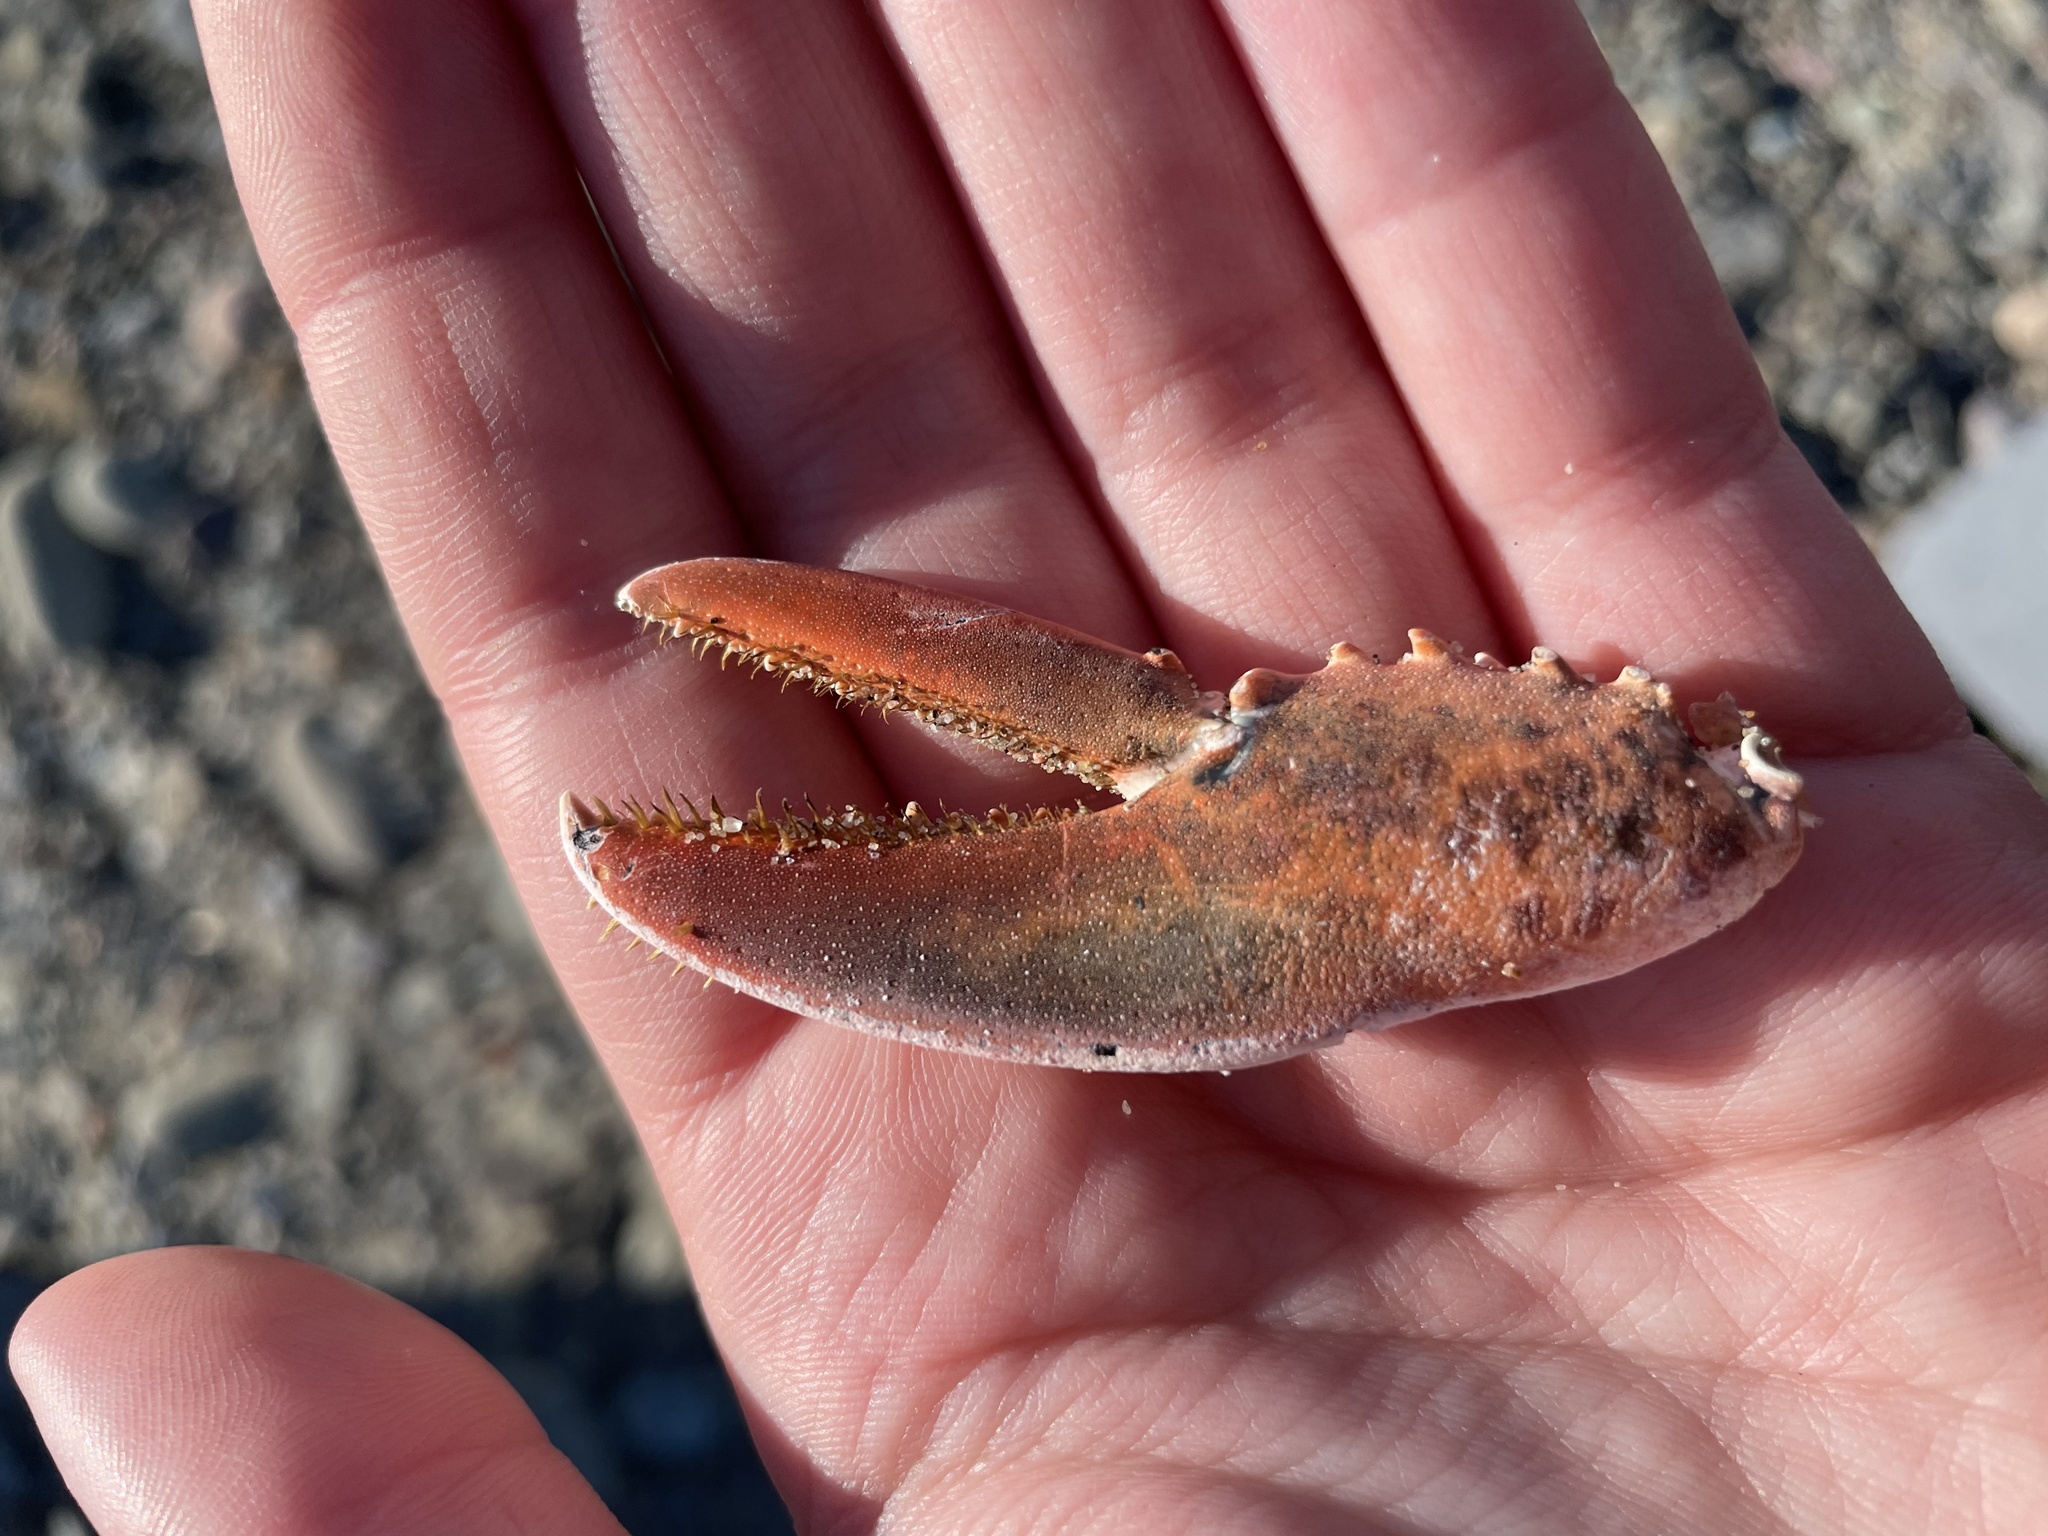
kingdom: Animalia
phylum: Arthropoda
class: Malacostraca
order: Decapoda
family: Nephropidae
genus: Homarus
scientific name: Homarus americanus
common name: American lobster
